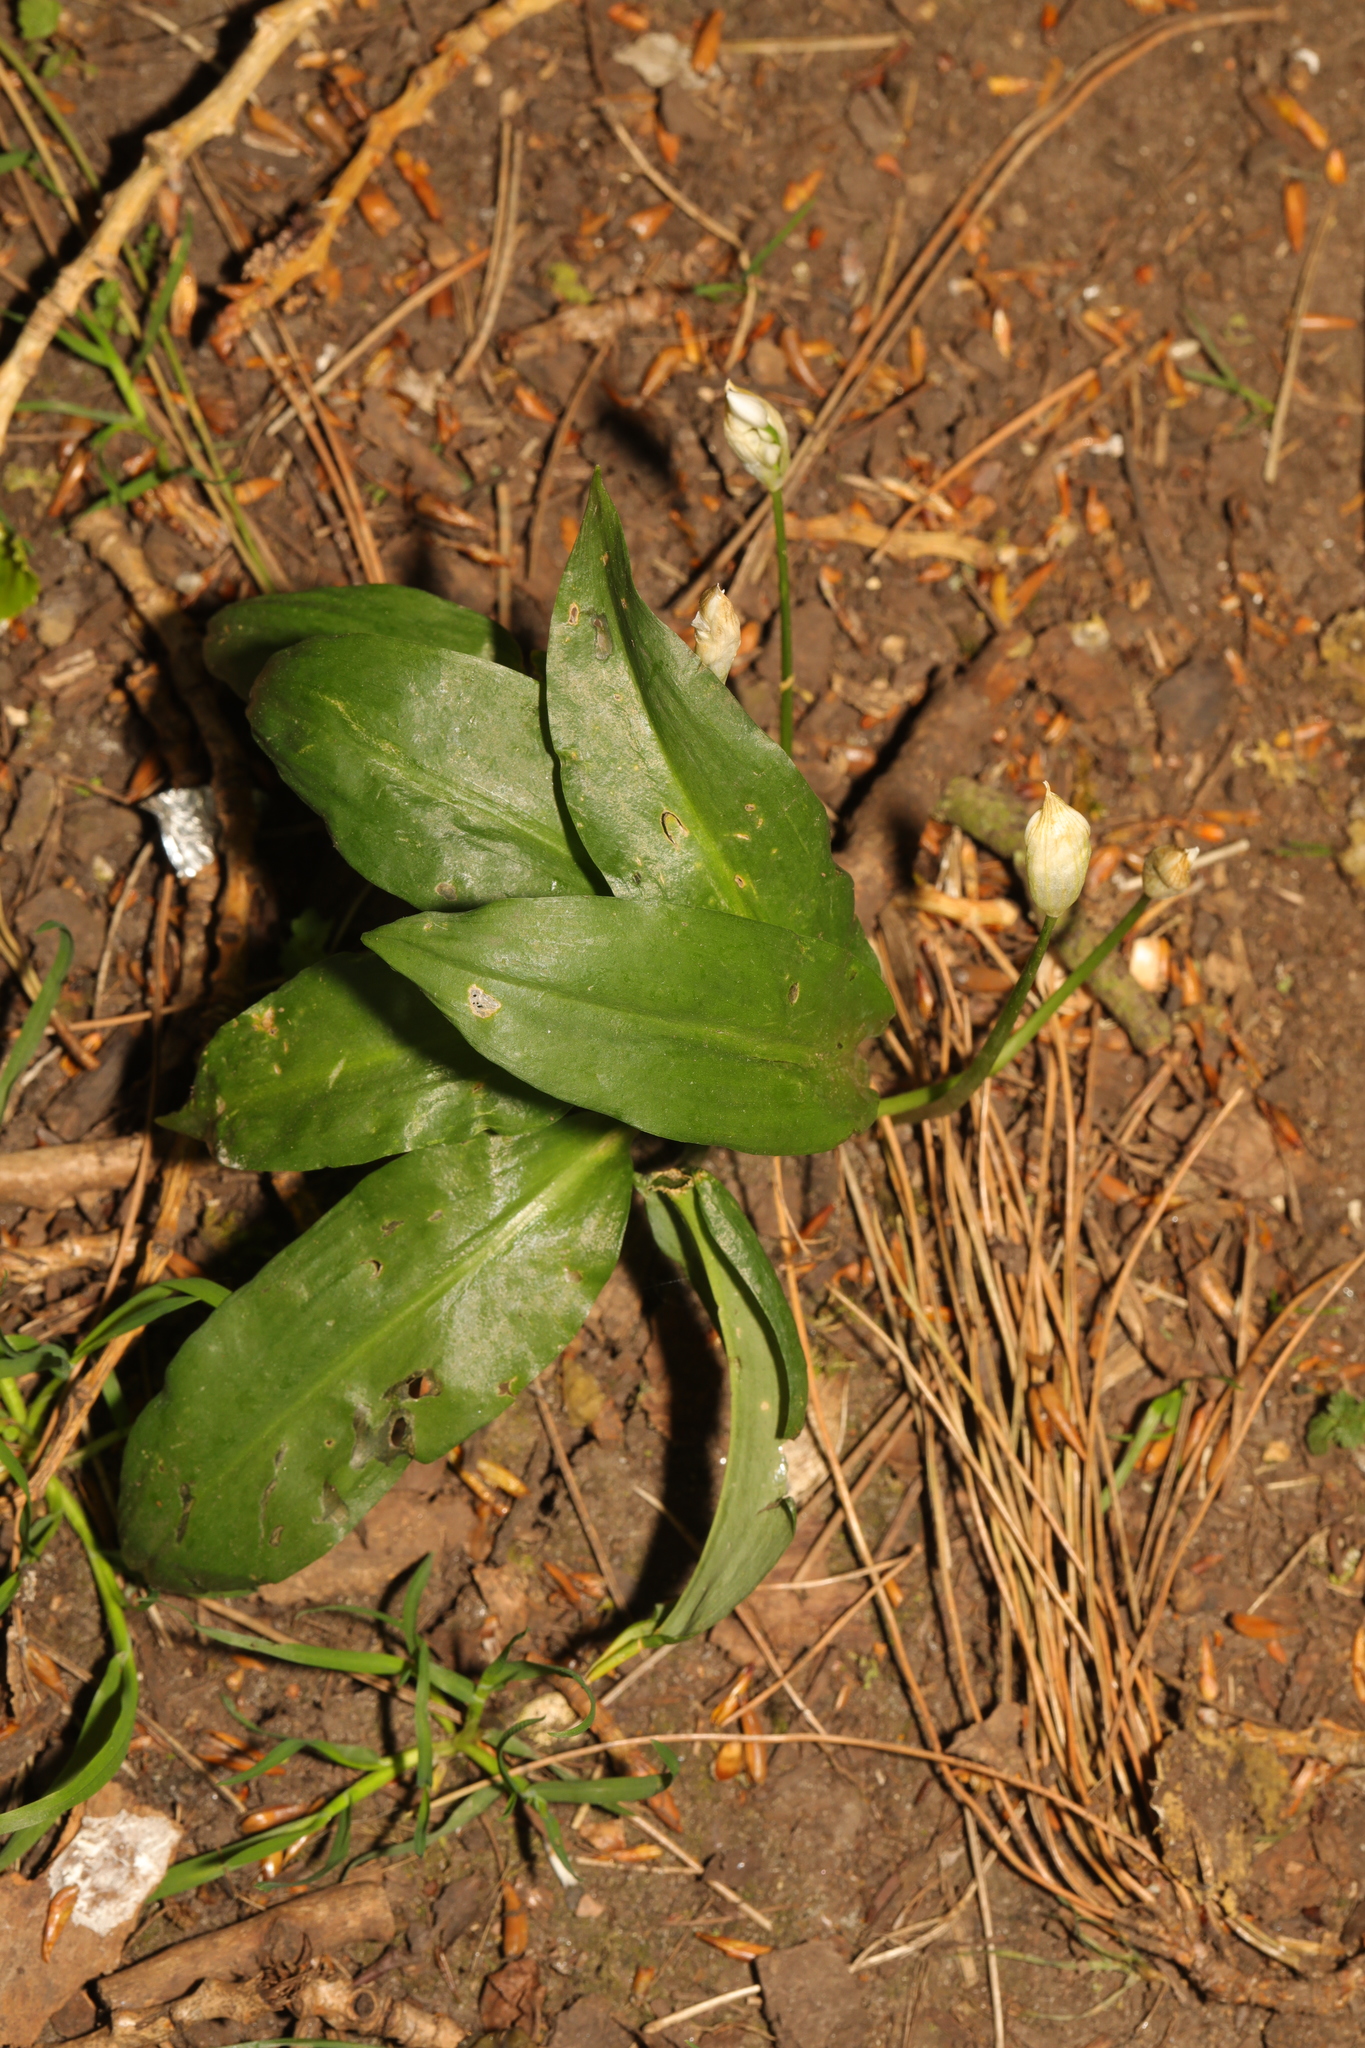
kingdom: Plantae
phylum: Tracheophyta
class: Liliopsida
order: Asparagales
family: Amaryllidaceae
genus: Allium
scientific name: Allium ursinum
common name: Ramsons
